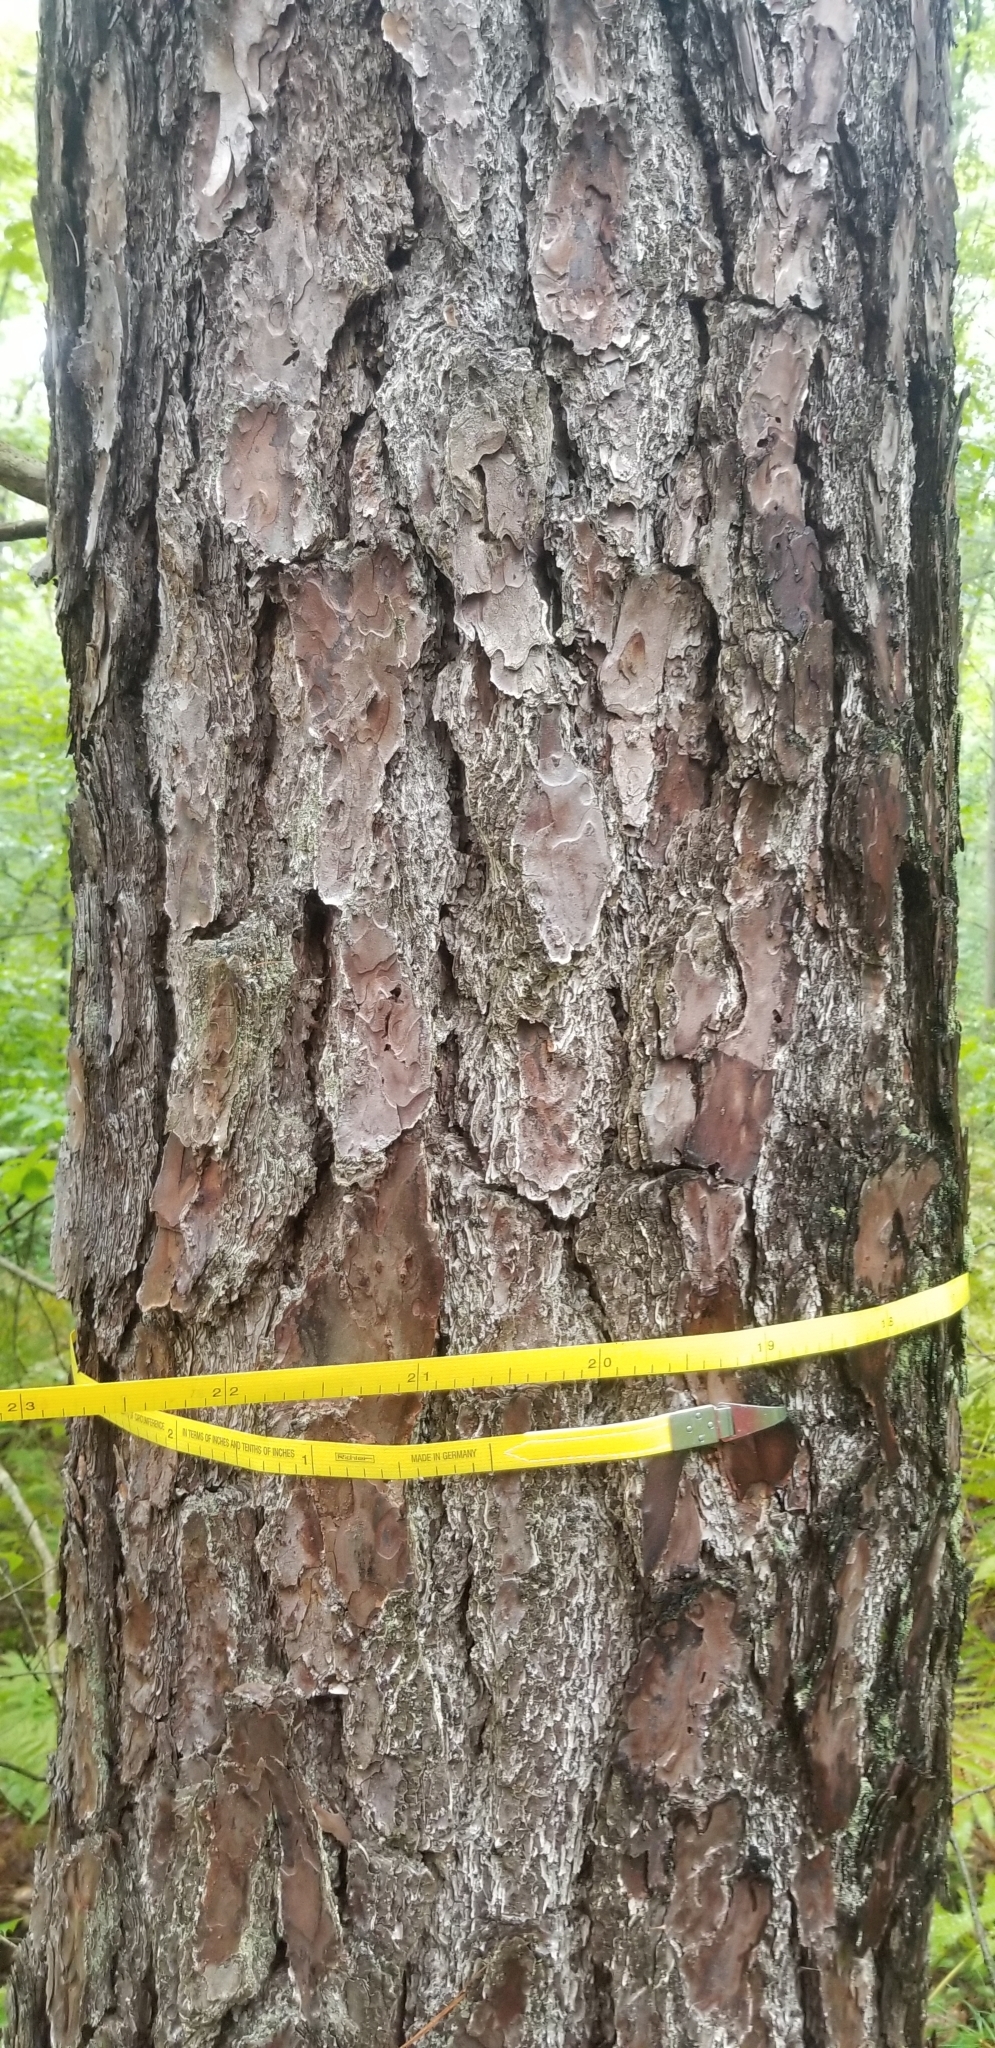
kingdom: Plantae
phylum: Tracheophyta
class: Pinopsida
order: Pinales
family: Pinaceae
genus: Pinus
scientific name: Pinus rigida
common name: Pitch pine
